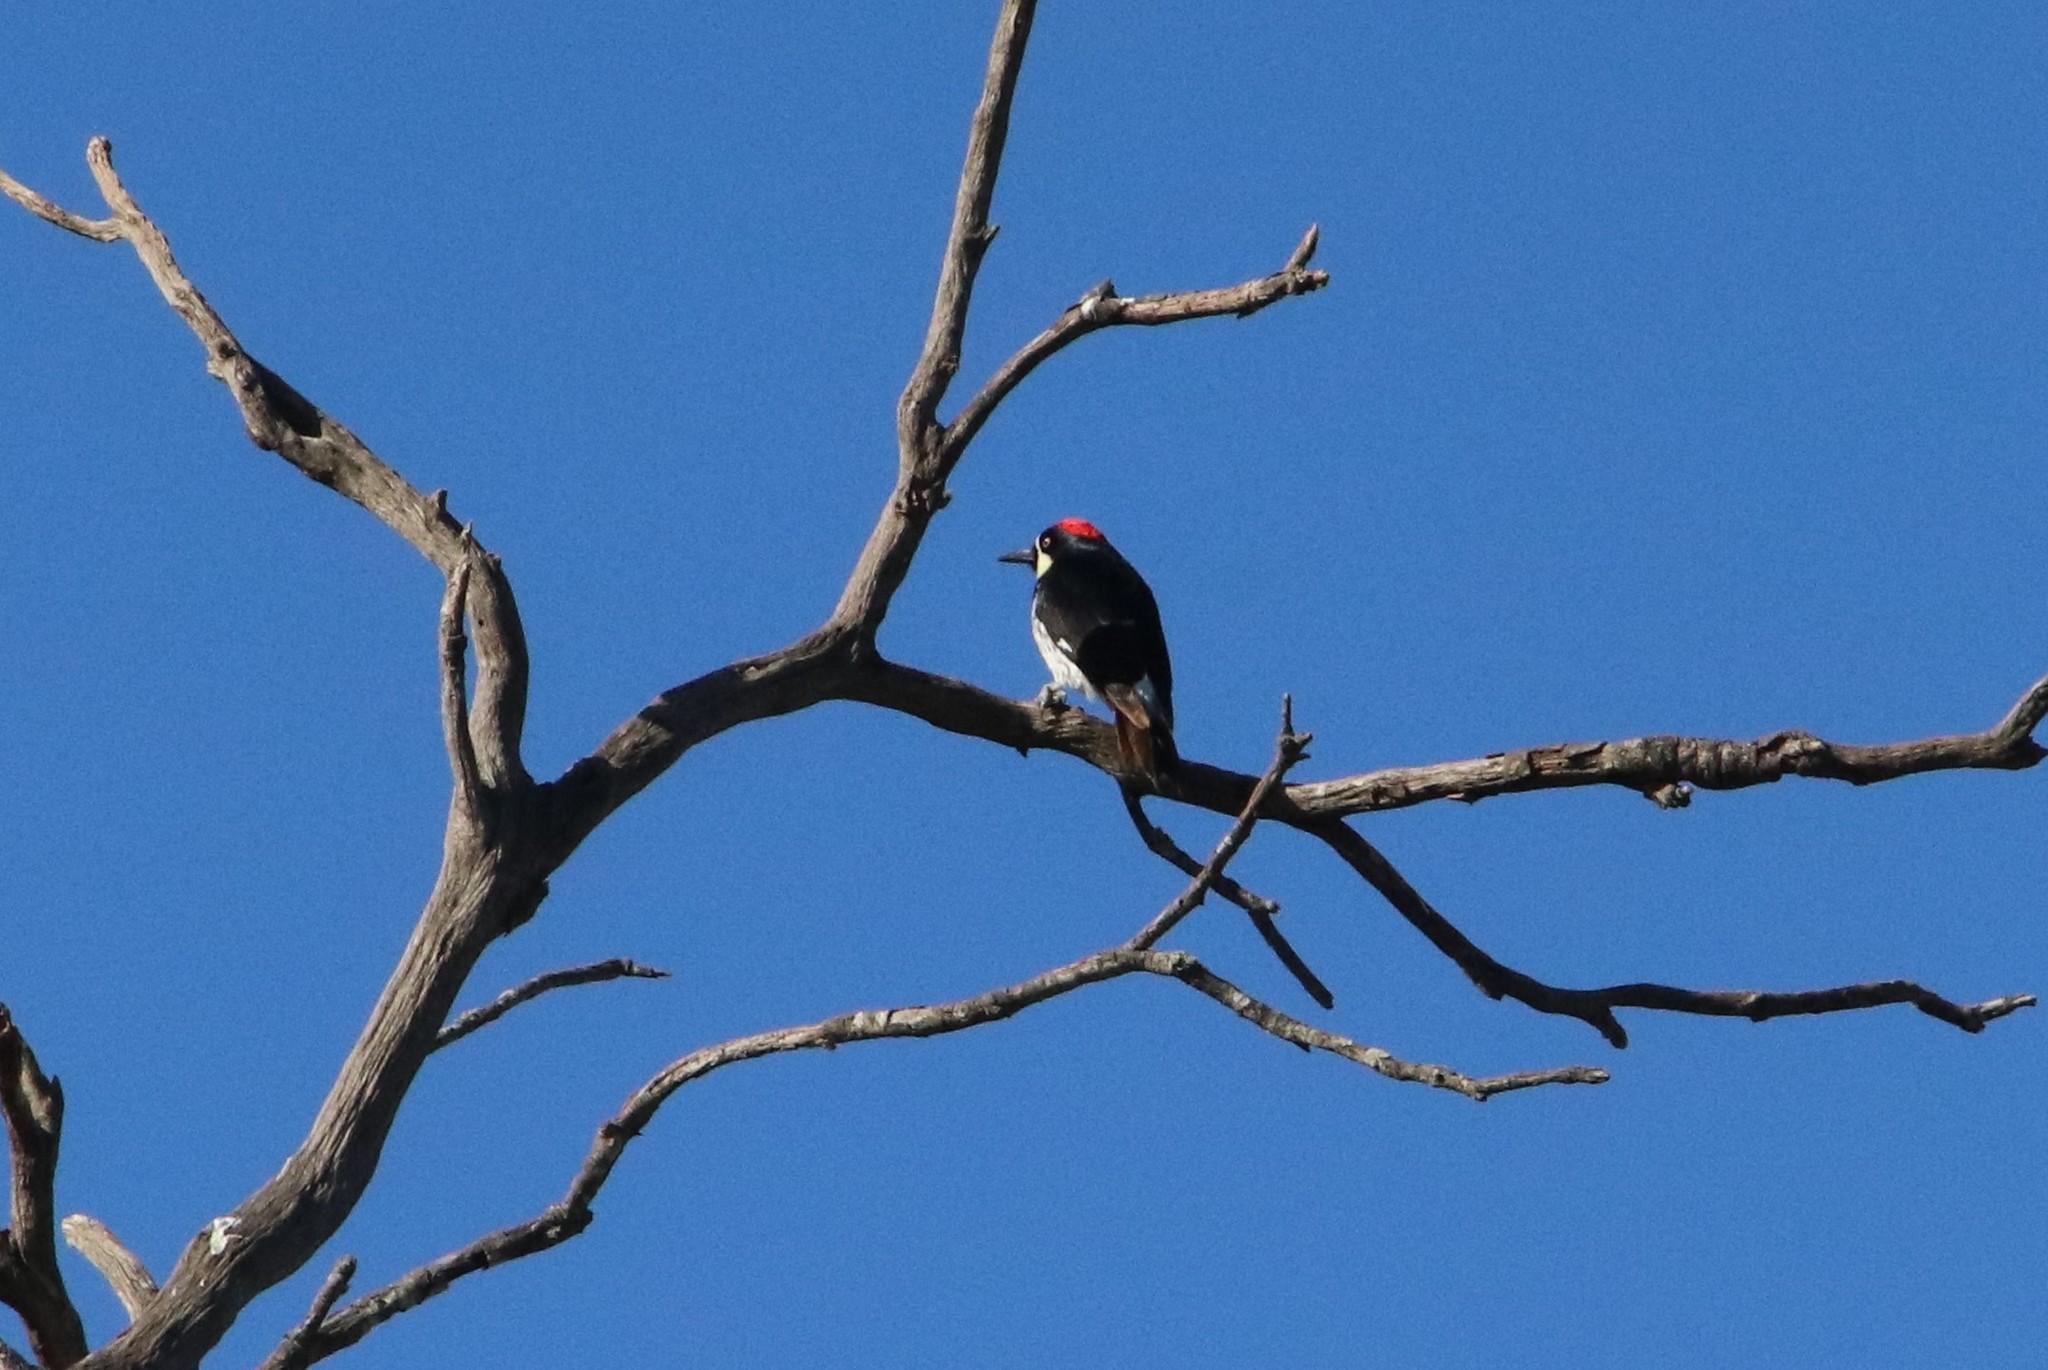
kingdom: Animalia
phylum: Chordata
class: Aves
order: Piciformes
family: Picidae
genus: Melanerpes
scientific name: Melanerpes formicivorus
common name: Acorn woodpecker
